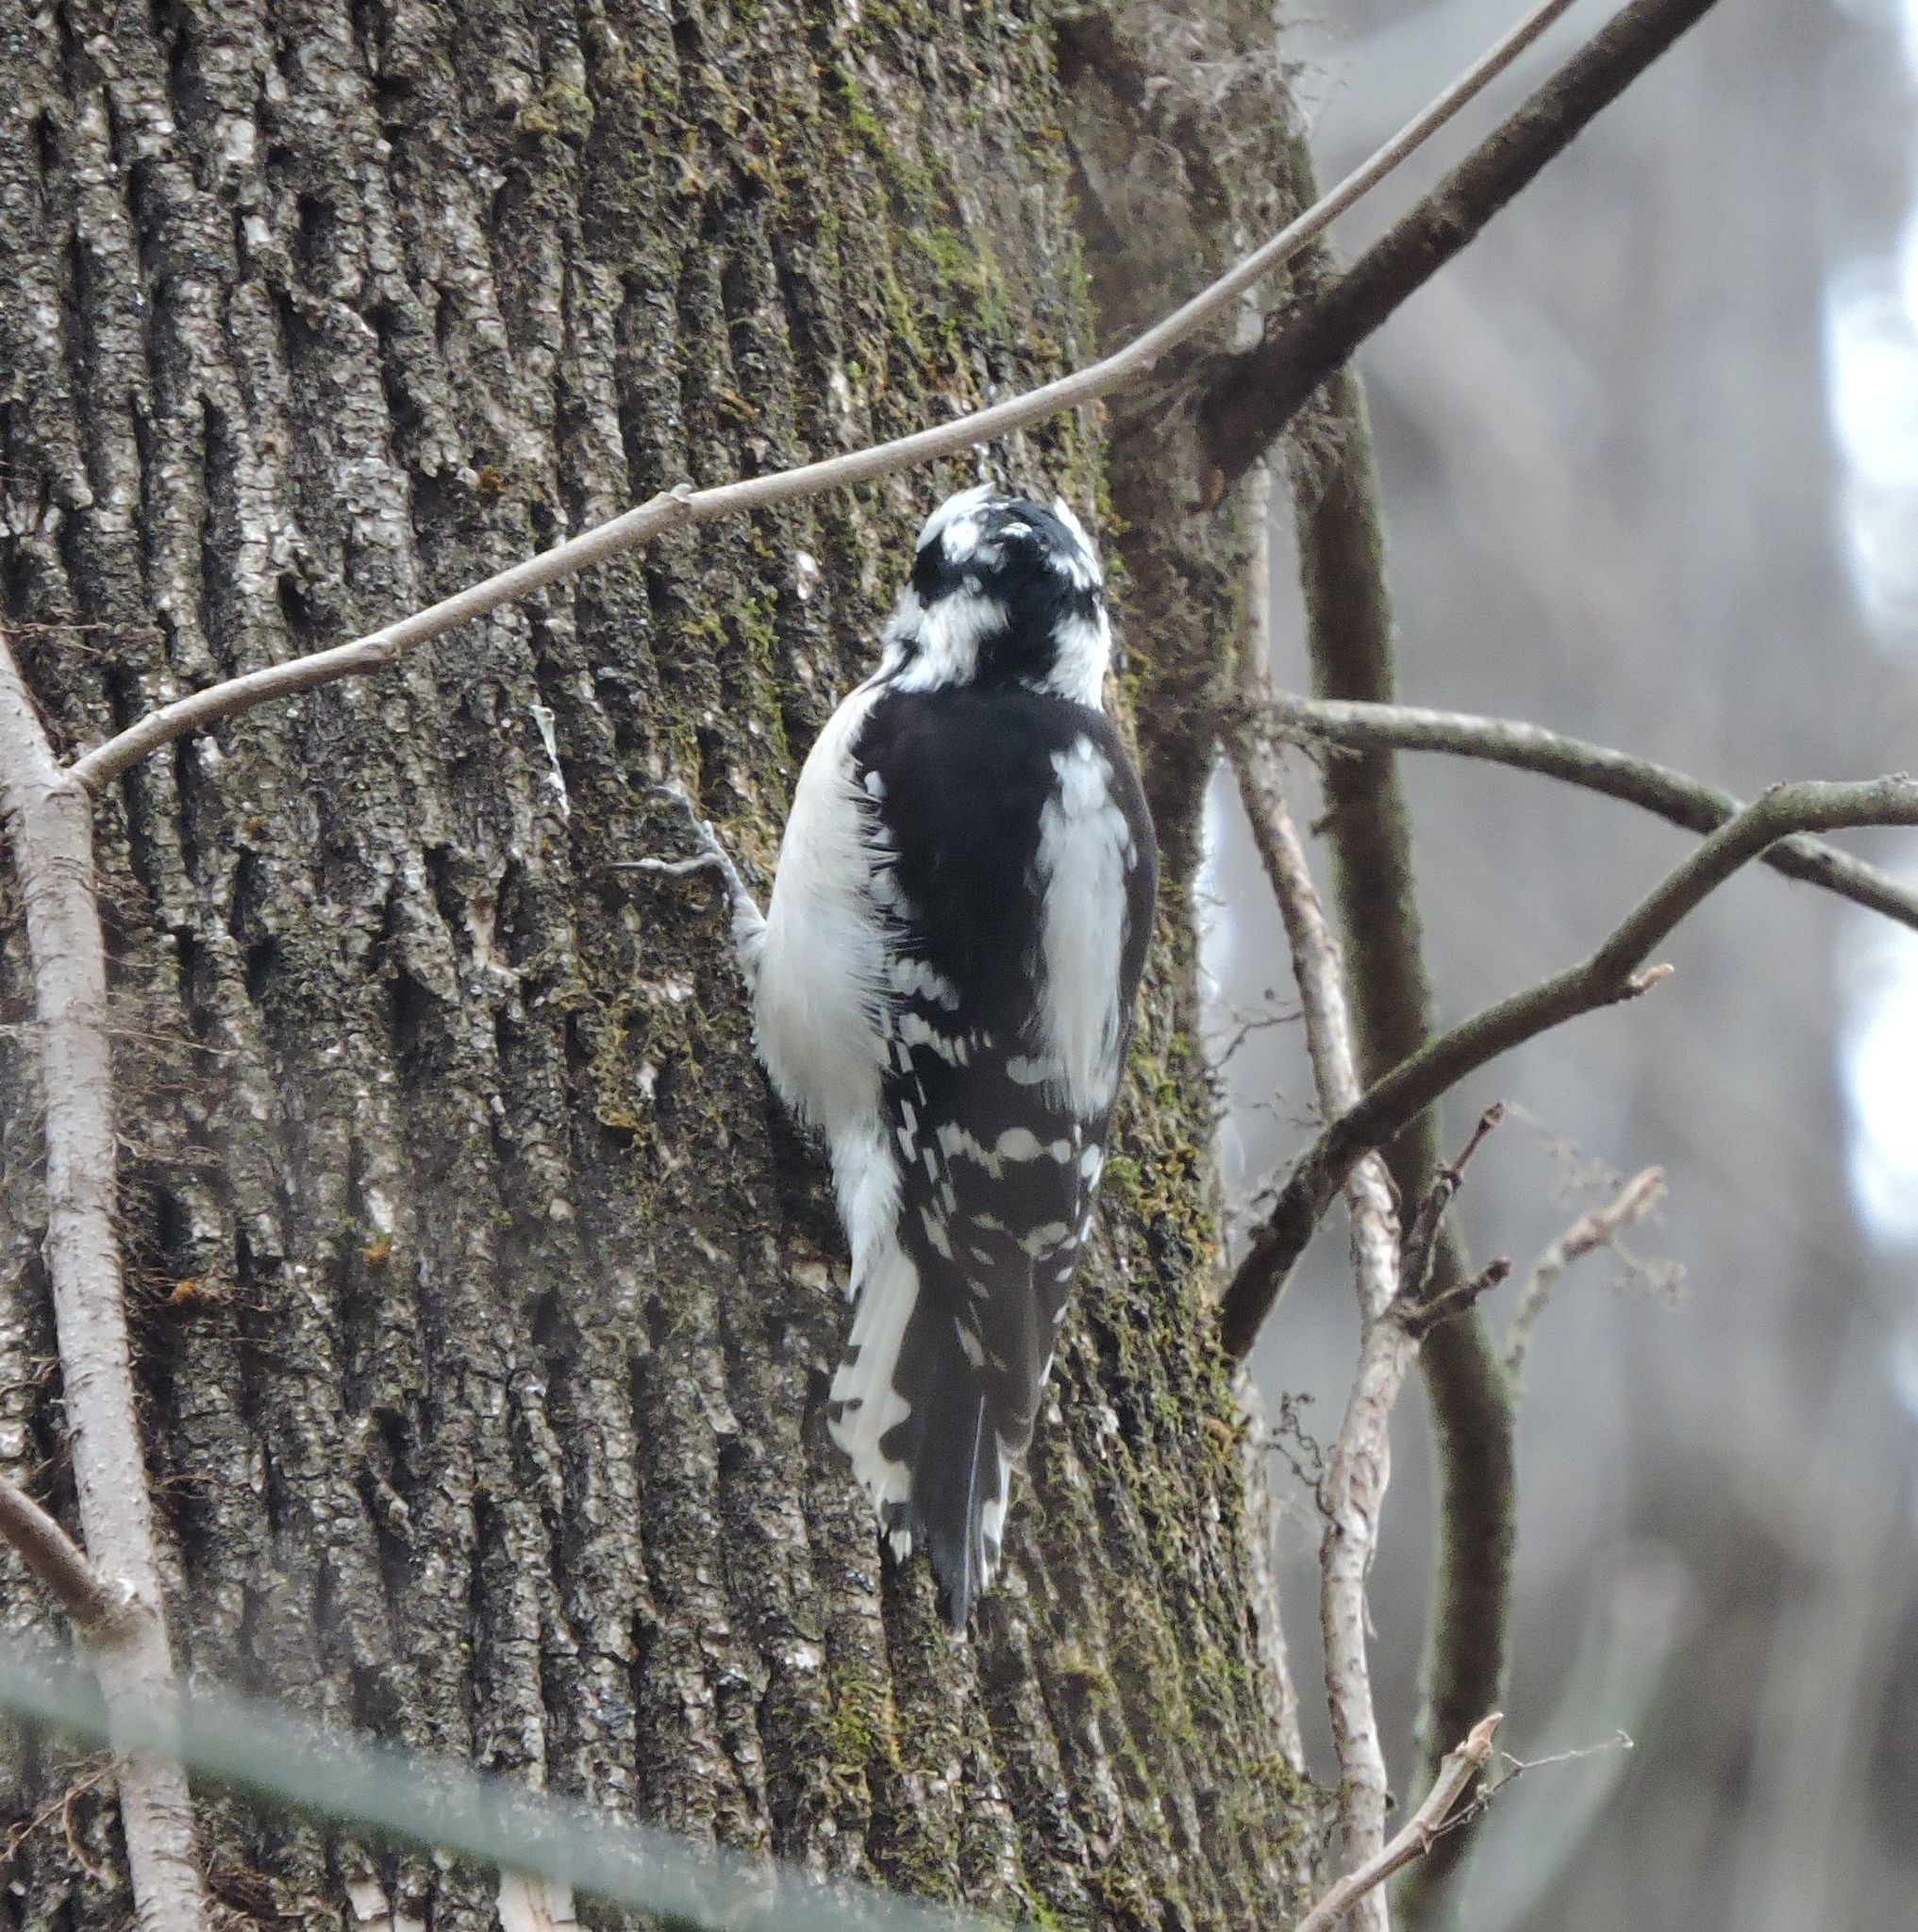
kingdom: Animalia
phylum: Chordata
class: Aves
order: Piciformes
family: Picidae
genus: Dryobates
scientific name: Dryobates pubescens
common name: Downy woodpecker
